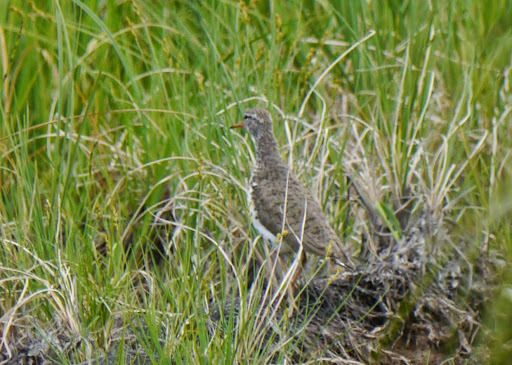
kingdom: Animalia
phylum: Chordata
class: Aves
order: Charadriiformes
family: Scolopacidae
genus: Actitis
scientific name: Actitis macularius
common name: Spotted sandpiper
